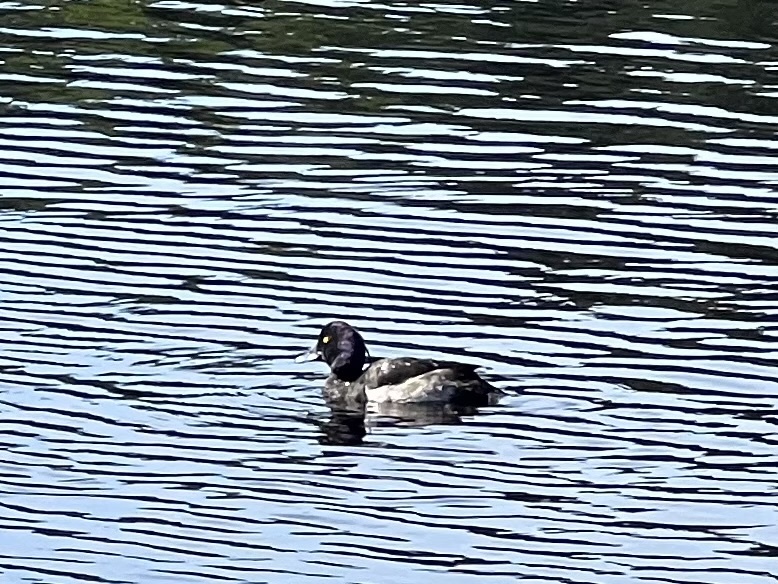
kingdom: Animalia
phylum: Chordata
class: Aves
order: Anseriformes
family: Anatidae
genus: Aythya
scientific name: Aythya fuligula
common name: Tufted duck
